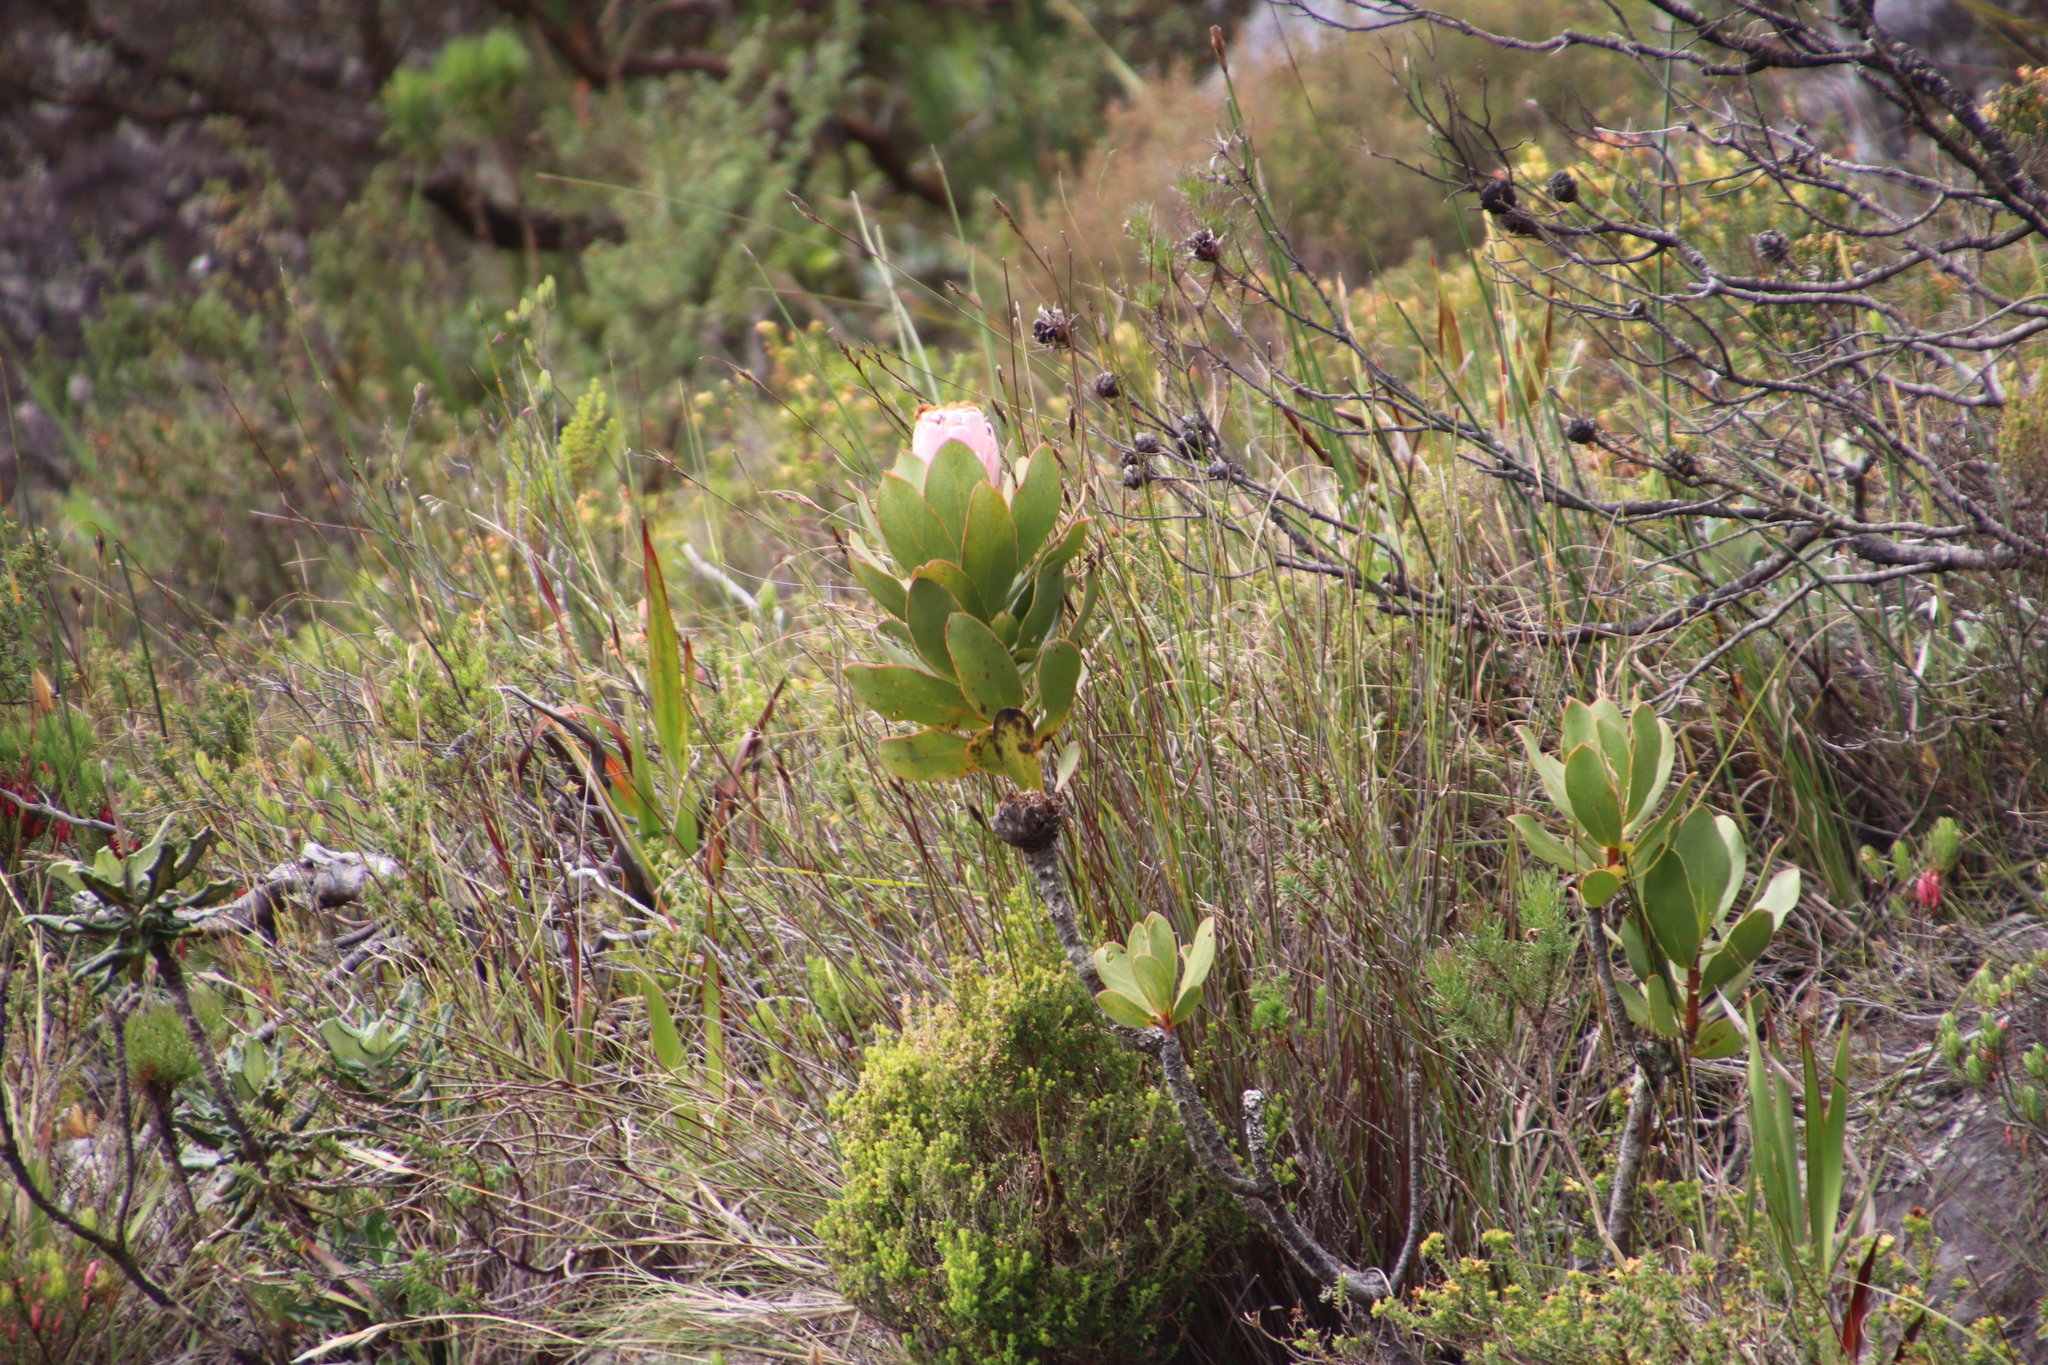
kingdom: Plantae
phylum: Tracheophyta
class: Magnoliopsida
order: Proteales
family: Proteaceae
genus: Protea
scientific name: Protea speciosa
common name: Brown-beard sugarbush
